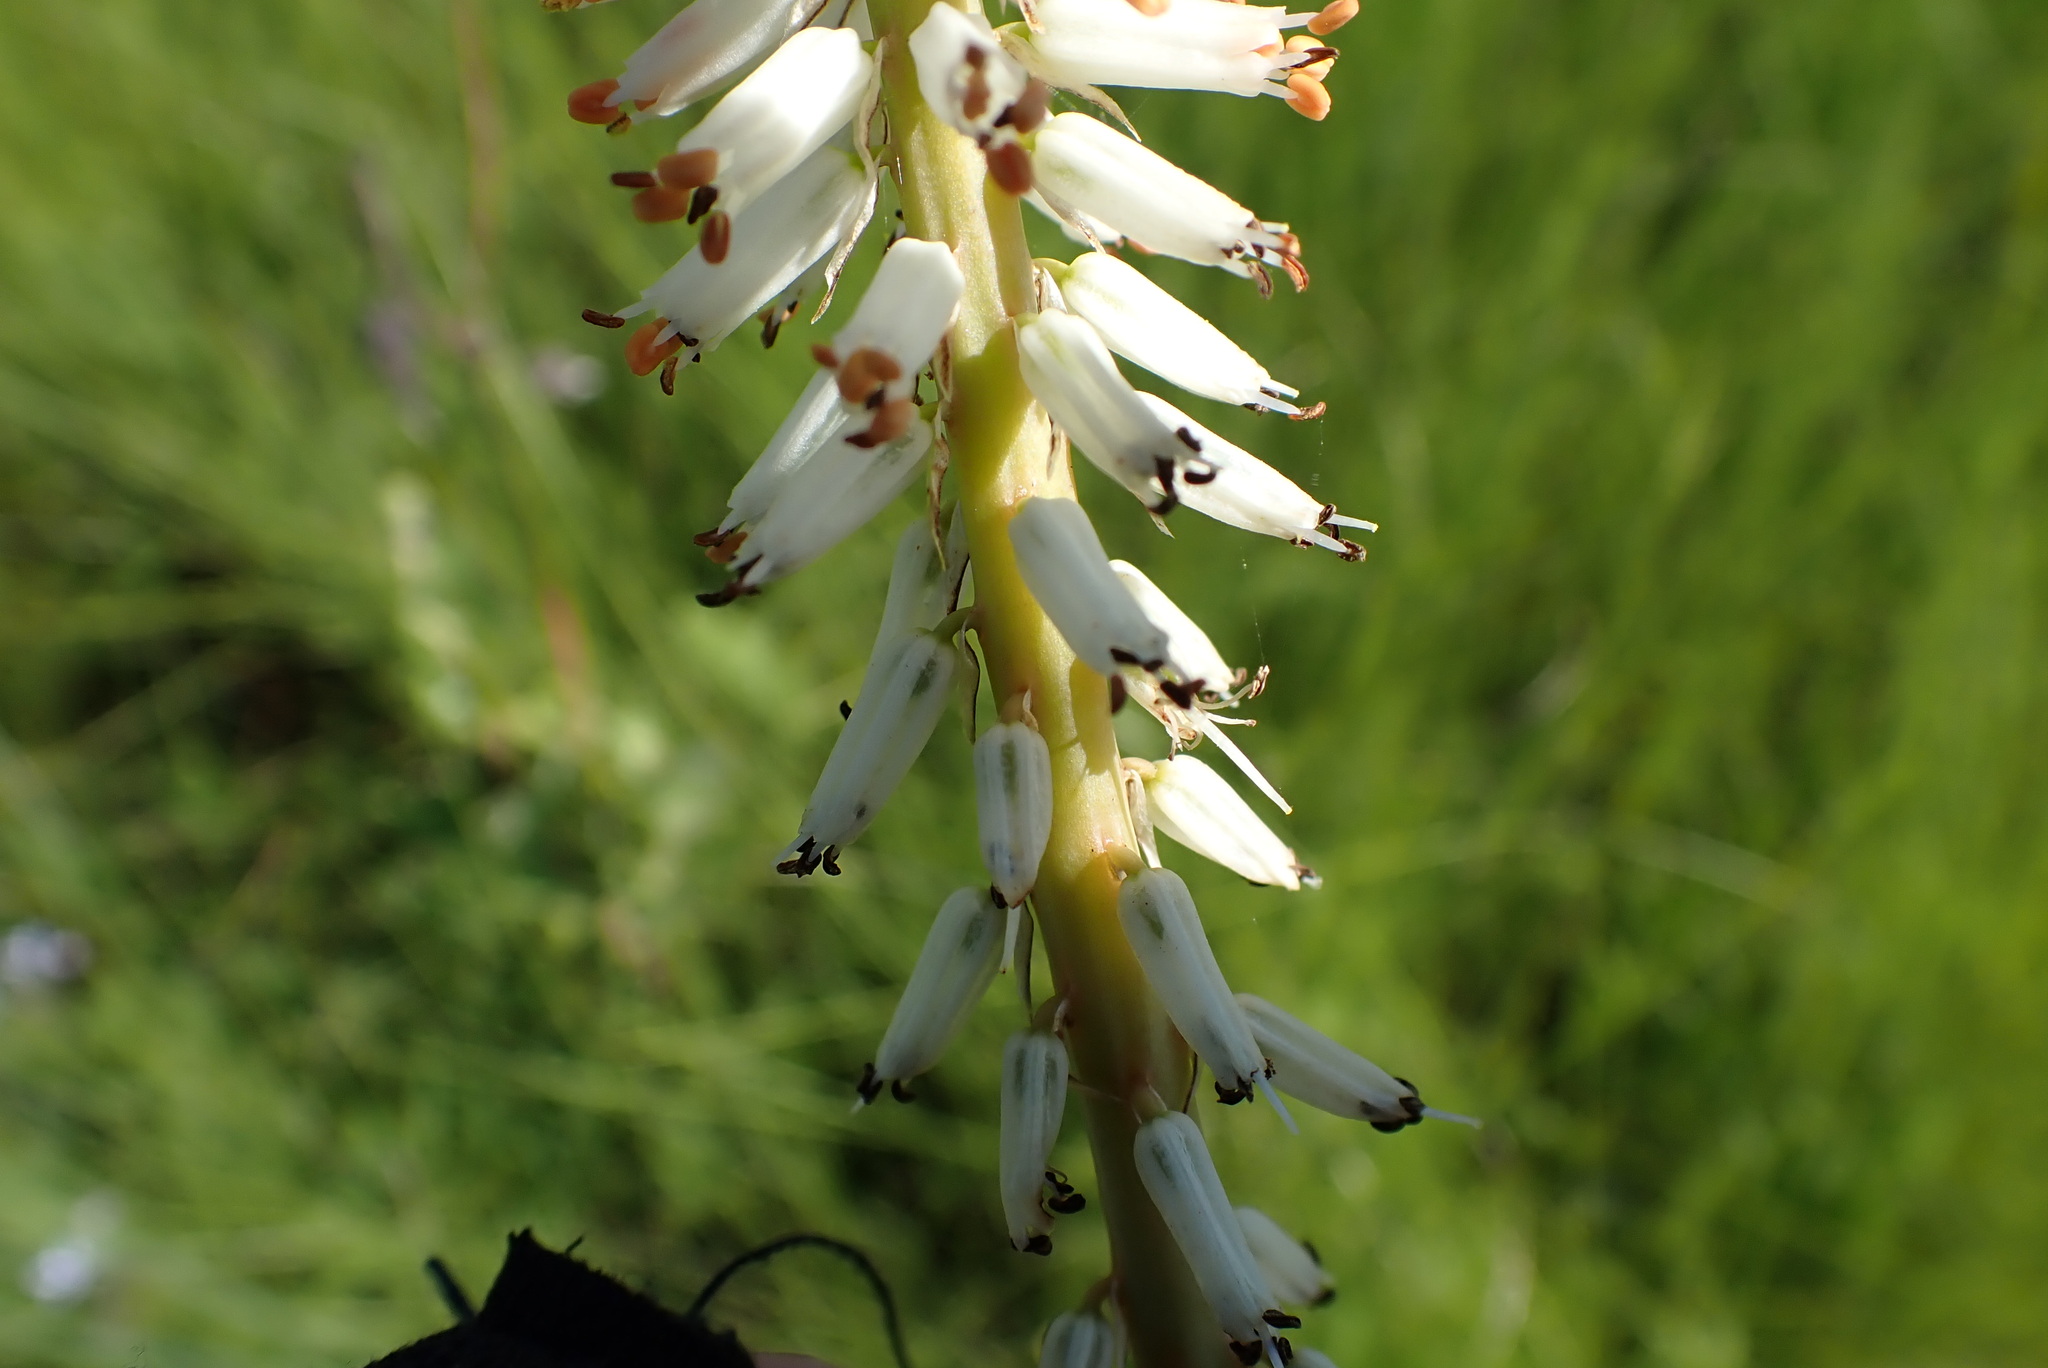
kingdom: Plantae
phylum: Tracheophyta
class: Liliopsida
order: Asparagales
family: Asphodelaceae
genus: Kniphofia
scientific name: Kniphofia buchananii
